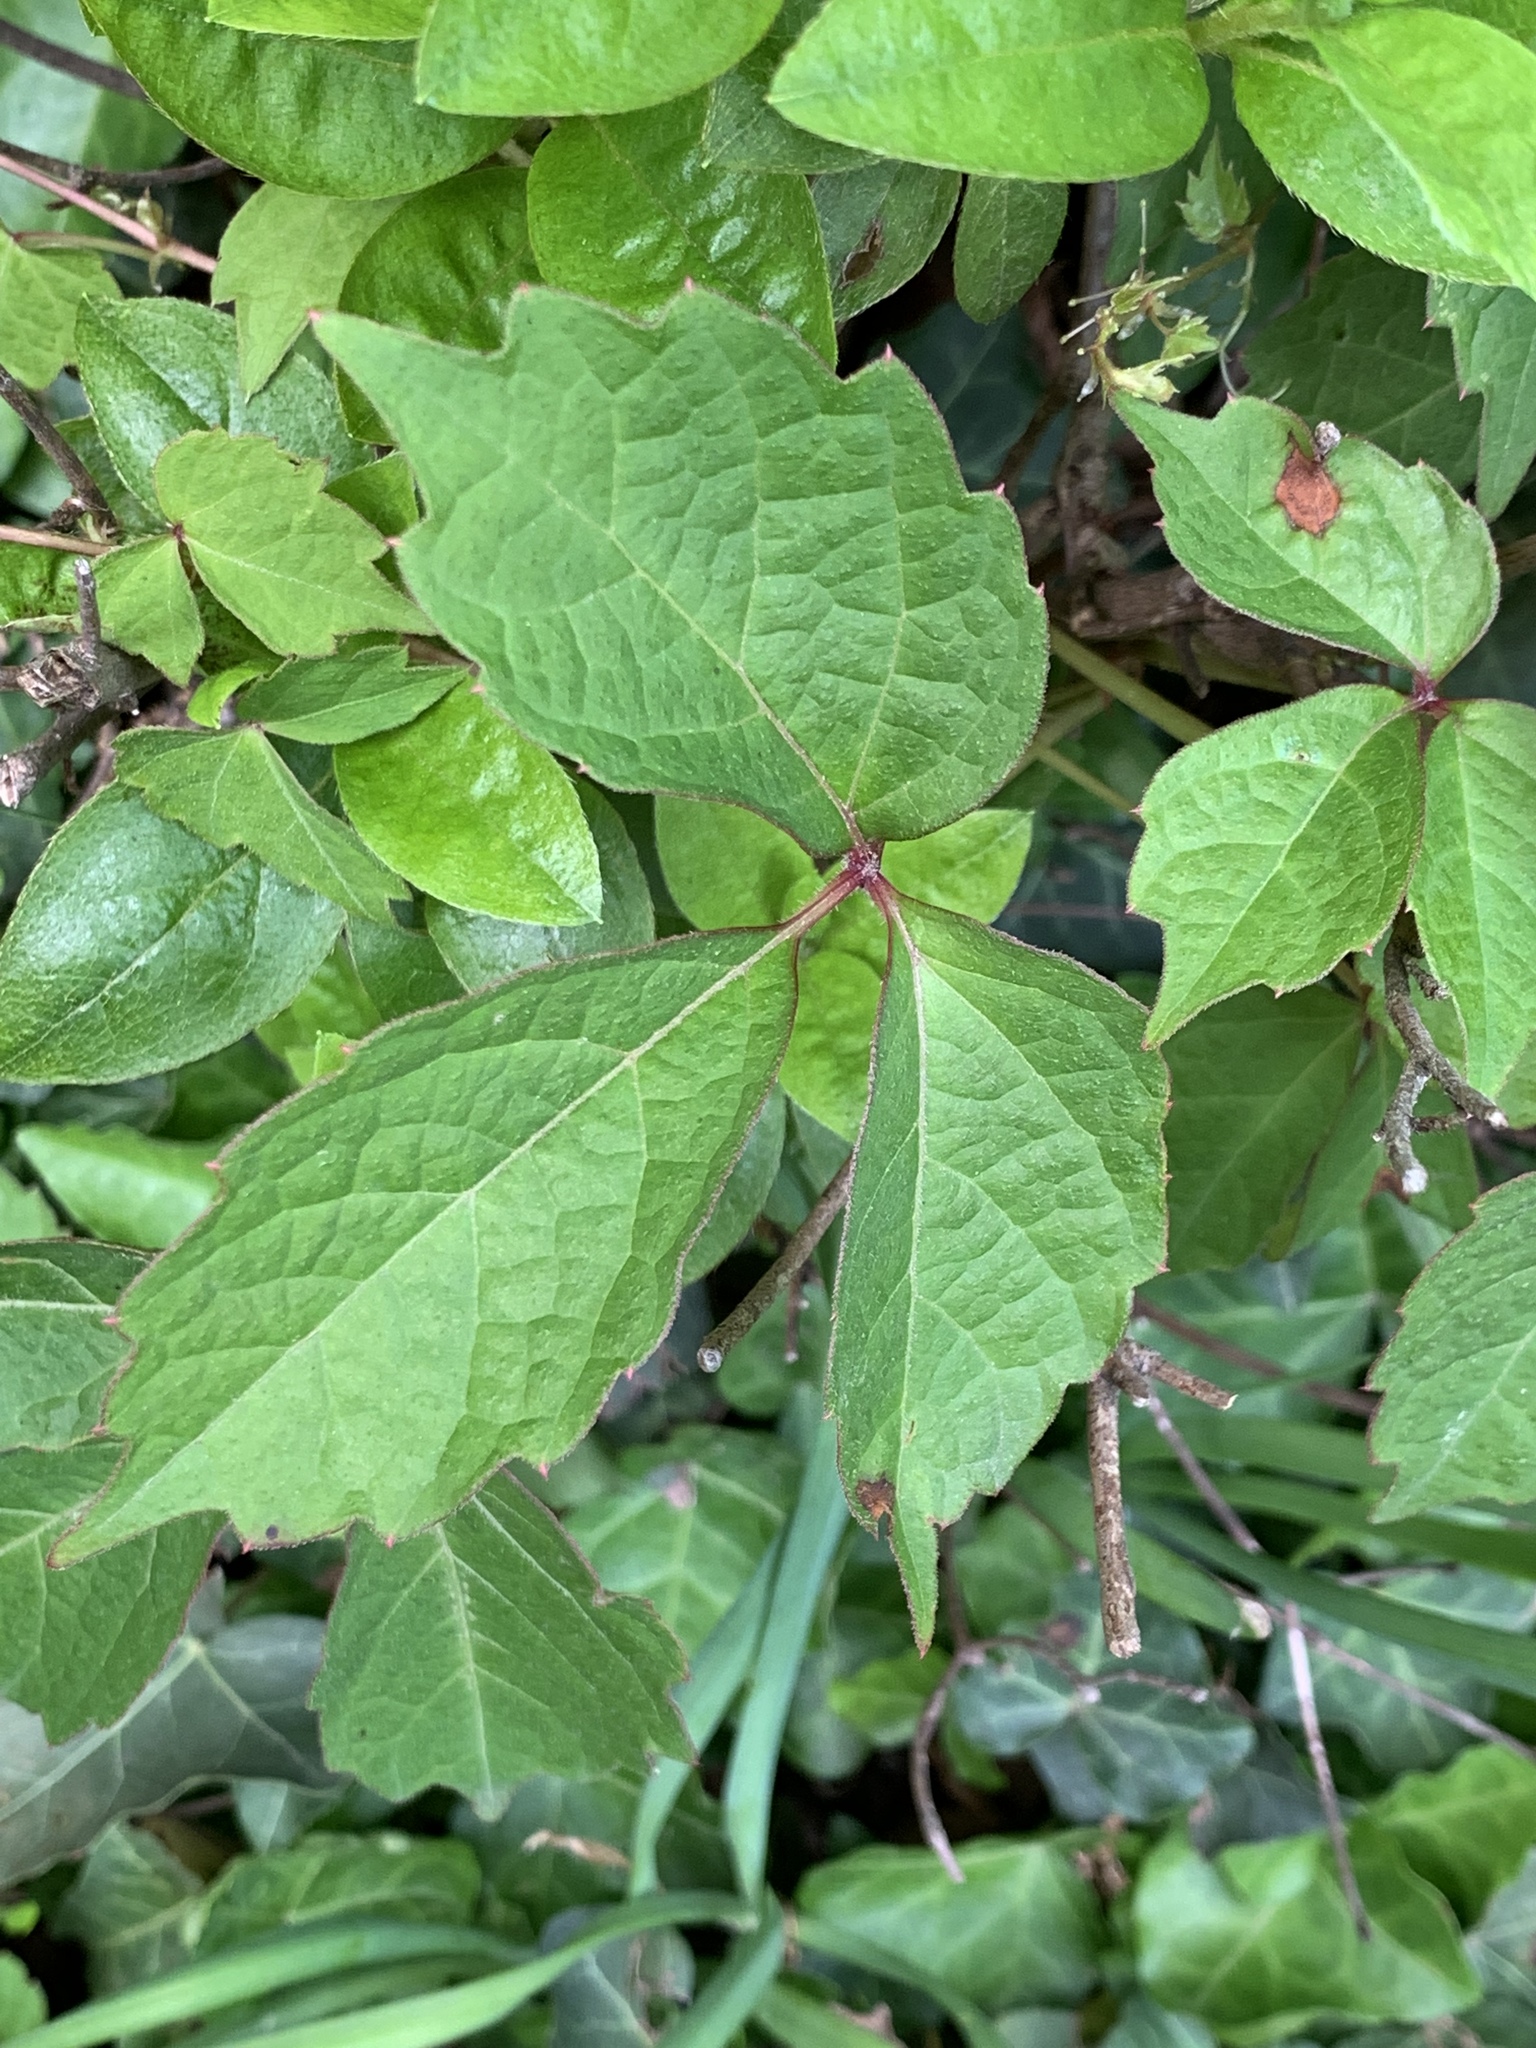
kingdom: Plantae
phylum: Tracheophyta
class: Magnoliopsida
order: Vitales
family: Vitaceae
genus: Parthenocissus
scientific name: Parthenocissus tricuspidata
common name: Boston ivy
